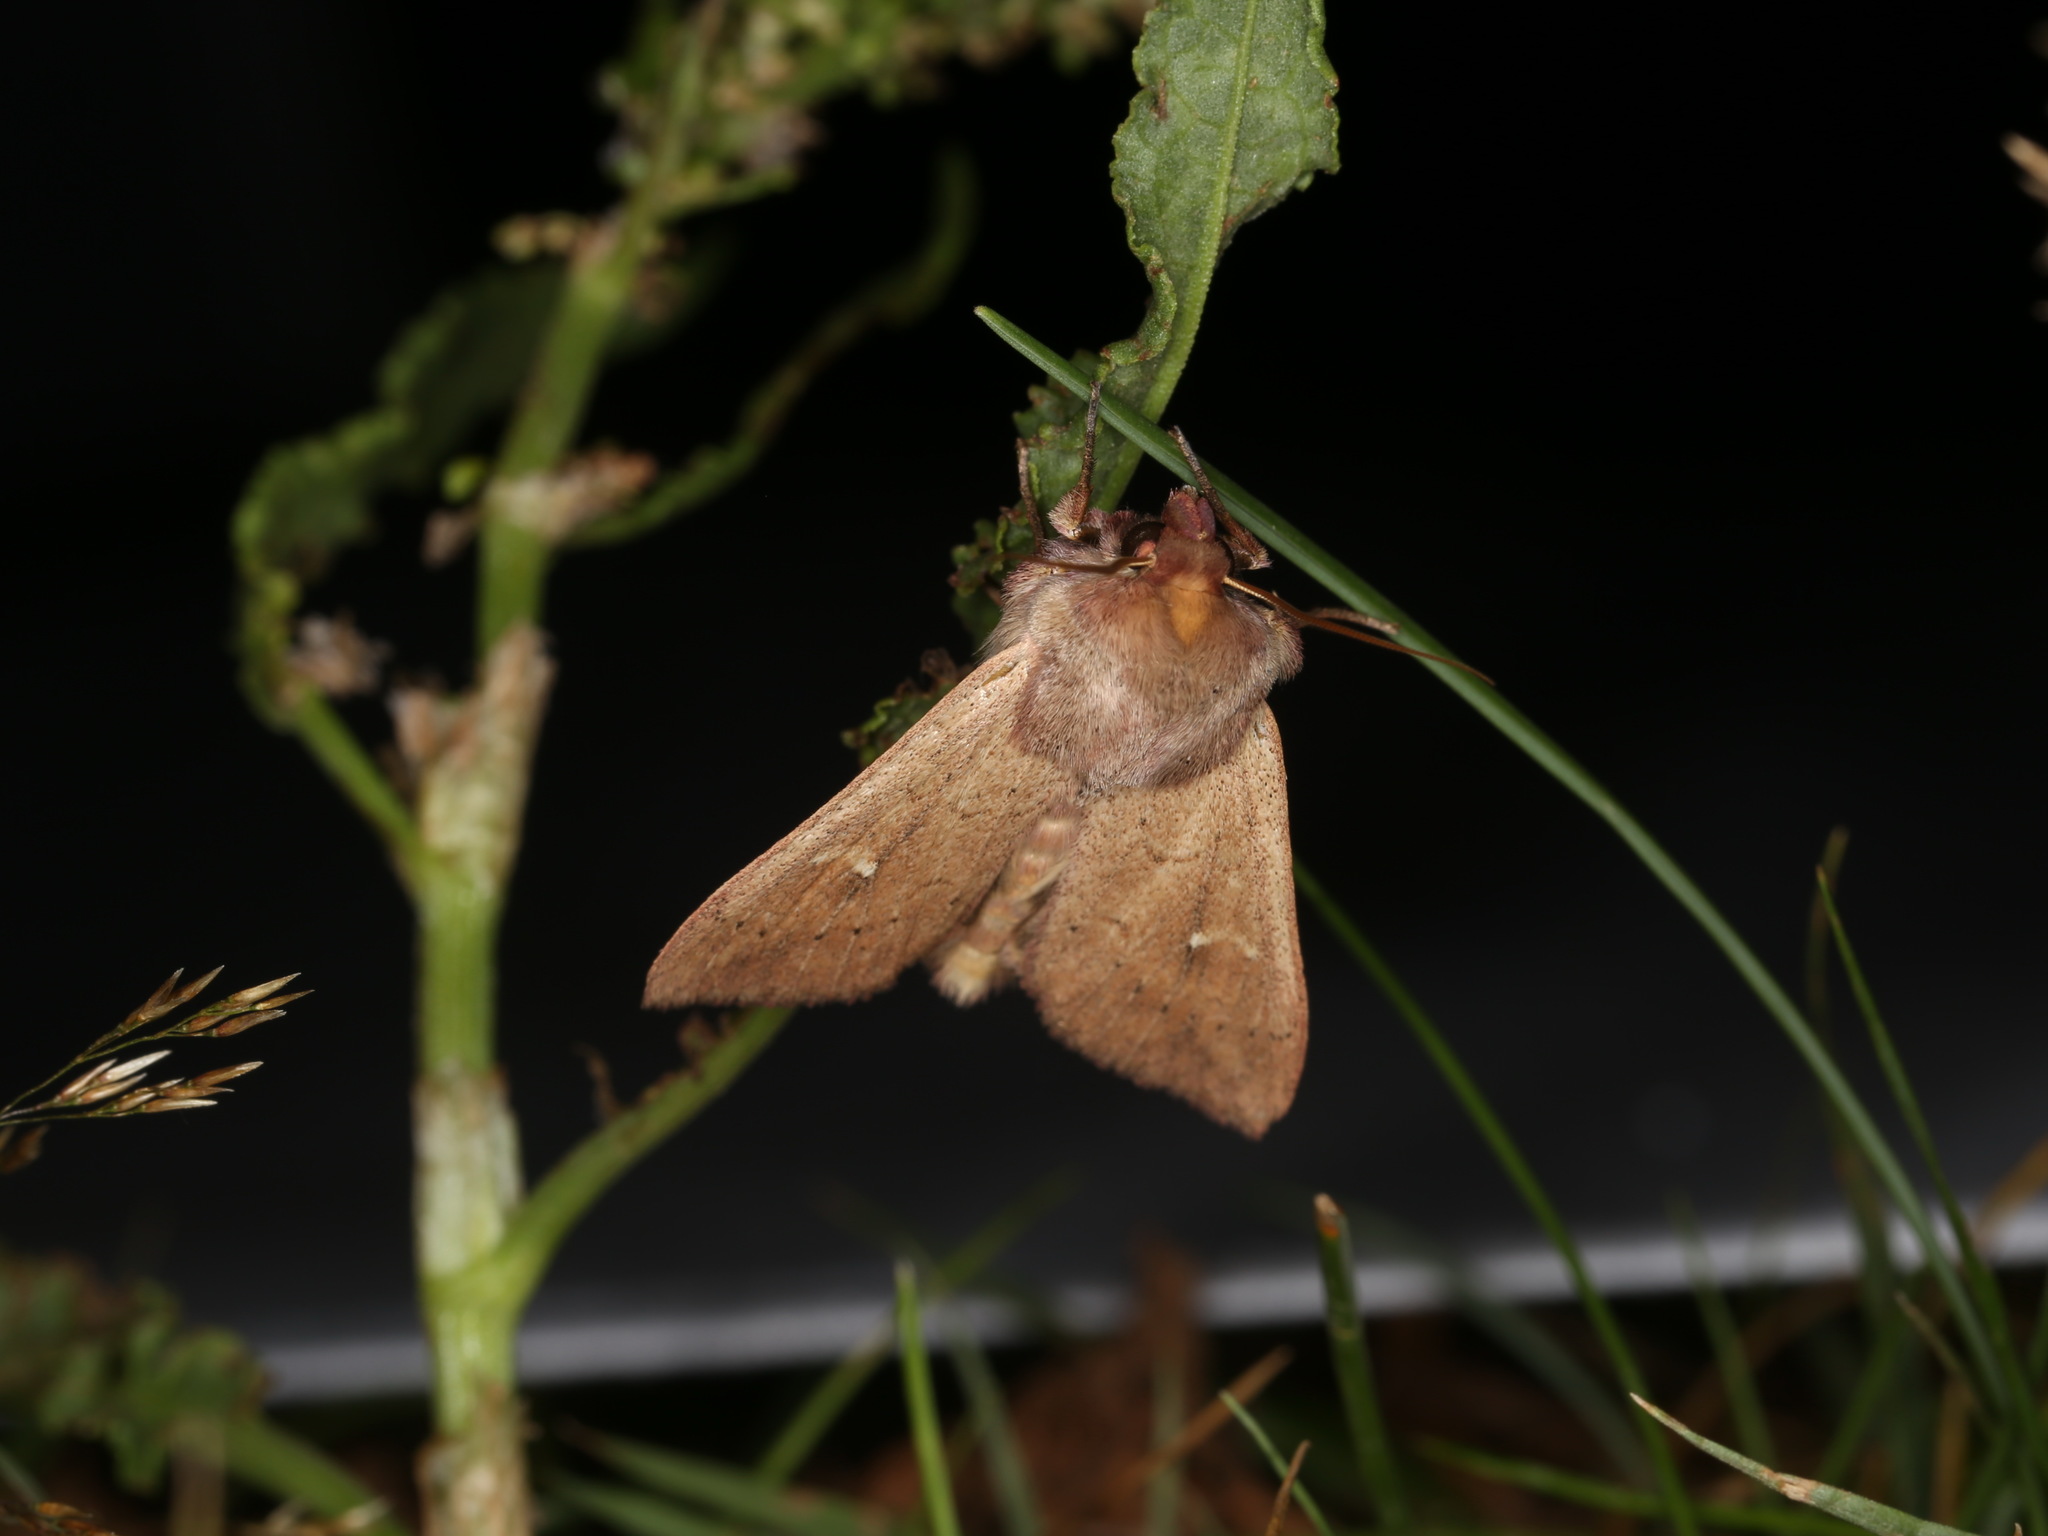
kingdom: Animalia
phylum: Arthropoda
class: Insecta
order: Lepidoptera
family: Noctuidae
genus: Mythimna
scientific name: Mythimna ferrago
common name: Clay
